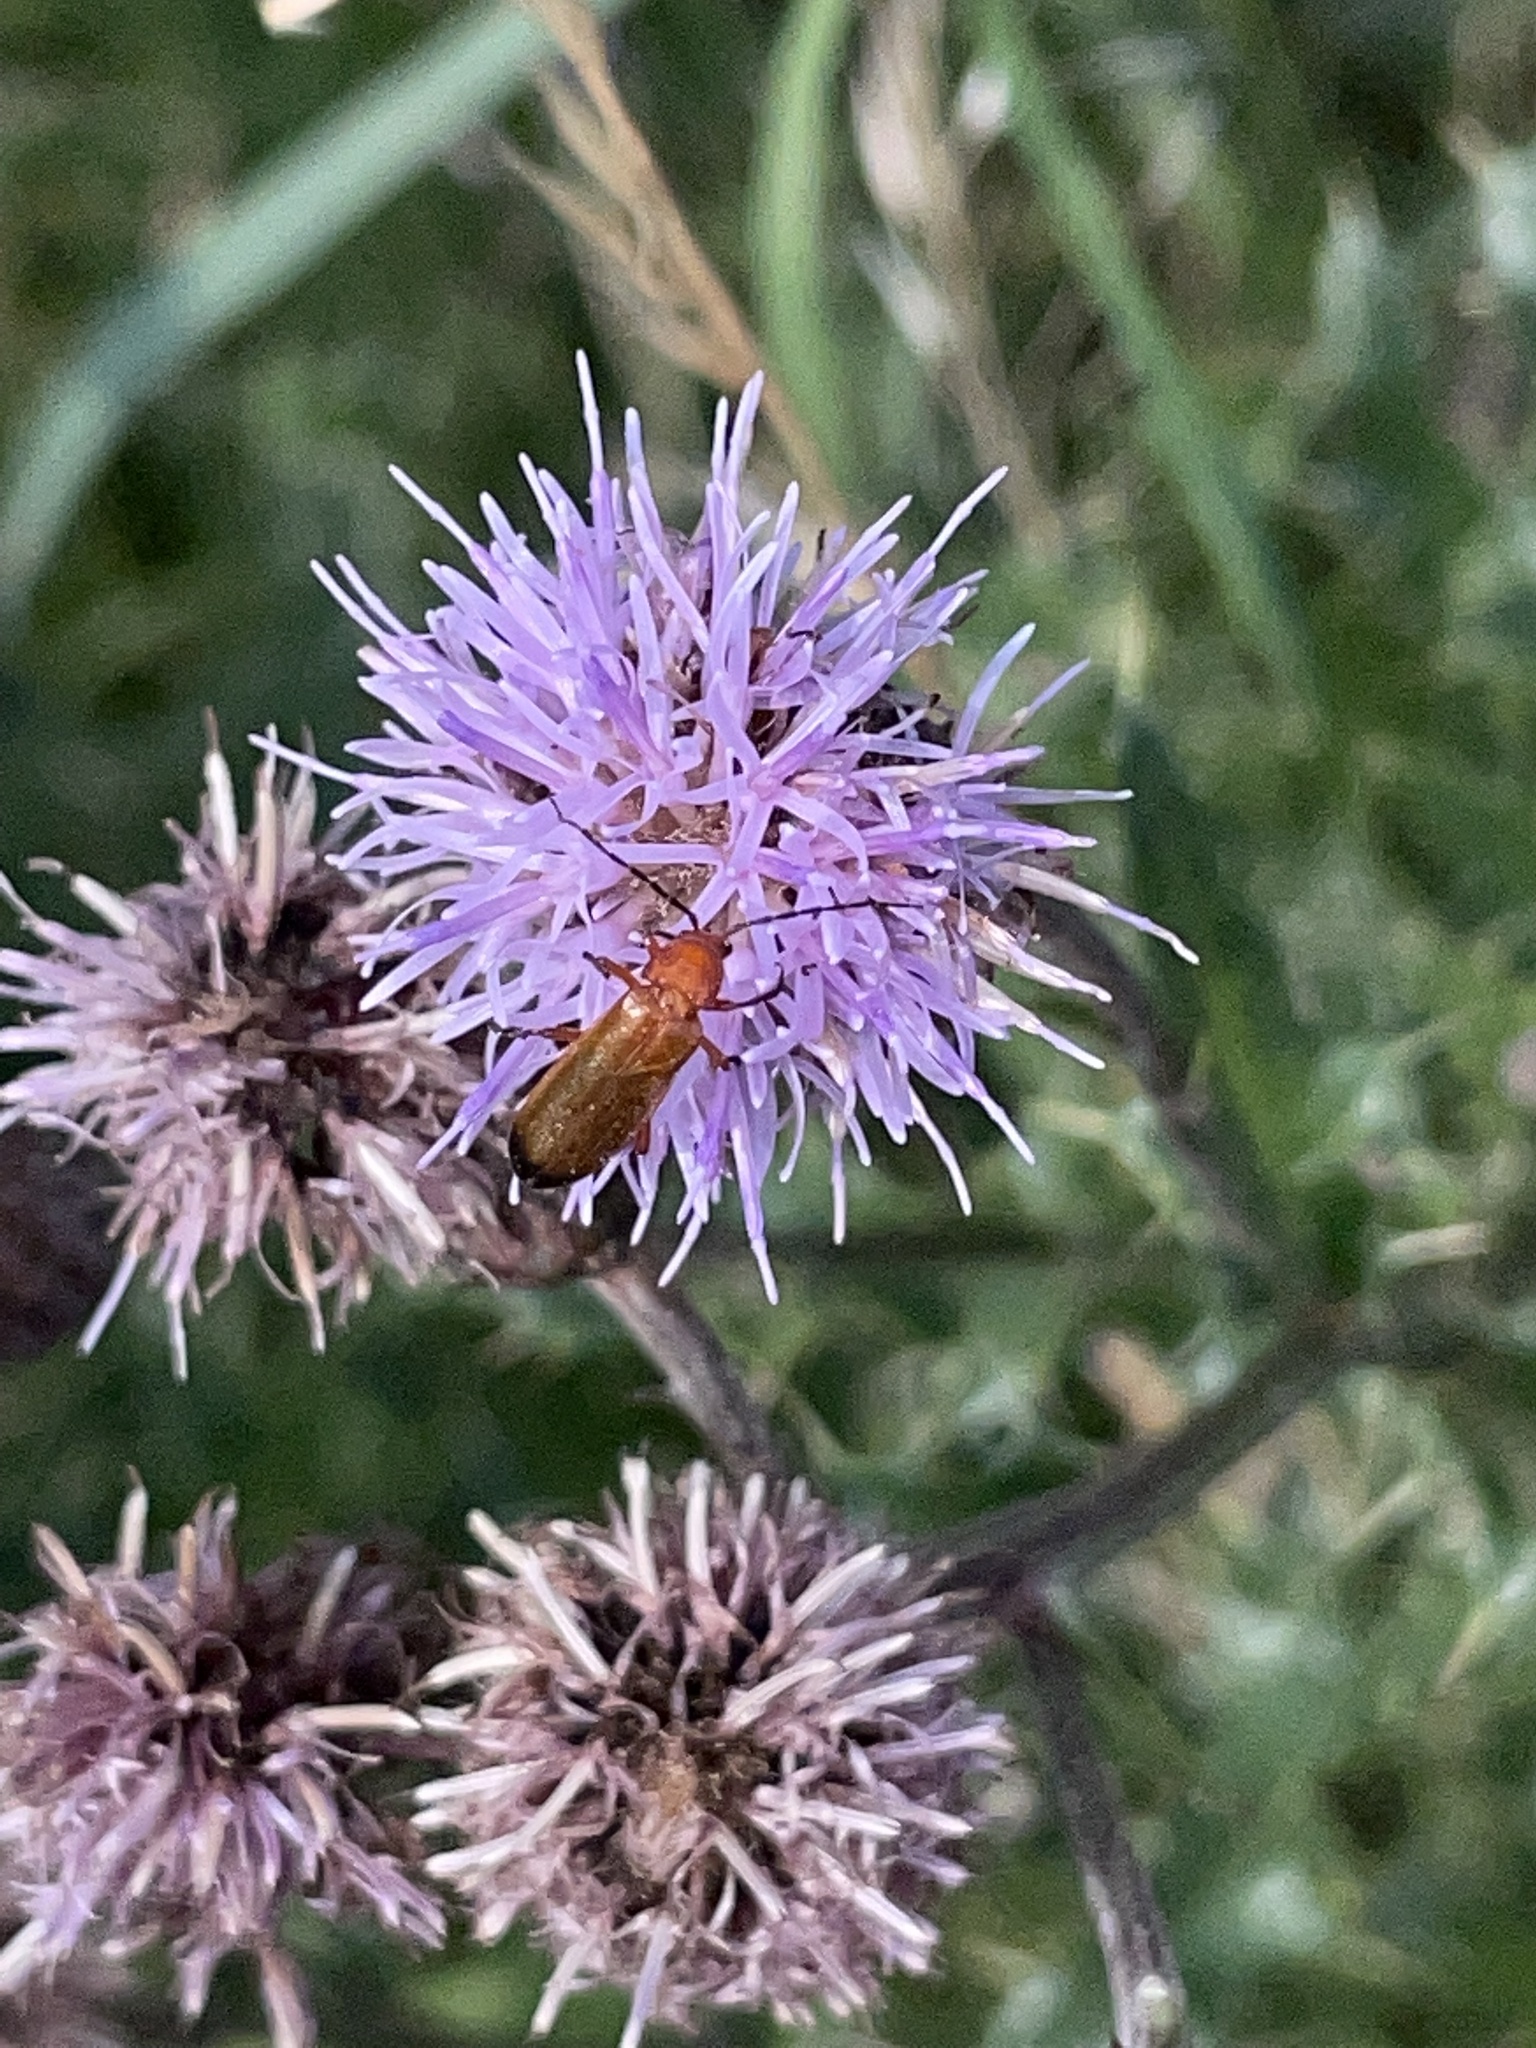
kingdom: Animalia
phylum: Arthropoda
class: Insecta
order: Coleoptera
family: Cantharidae
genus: Rhagonycha
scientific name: Rhagonycha fulva
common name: Common red soldier beetle
